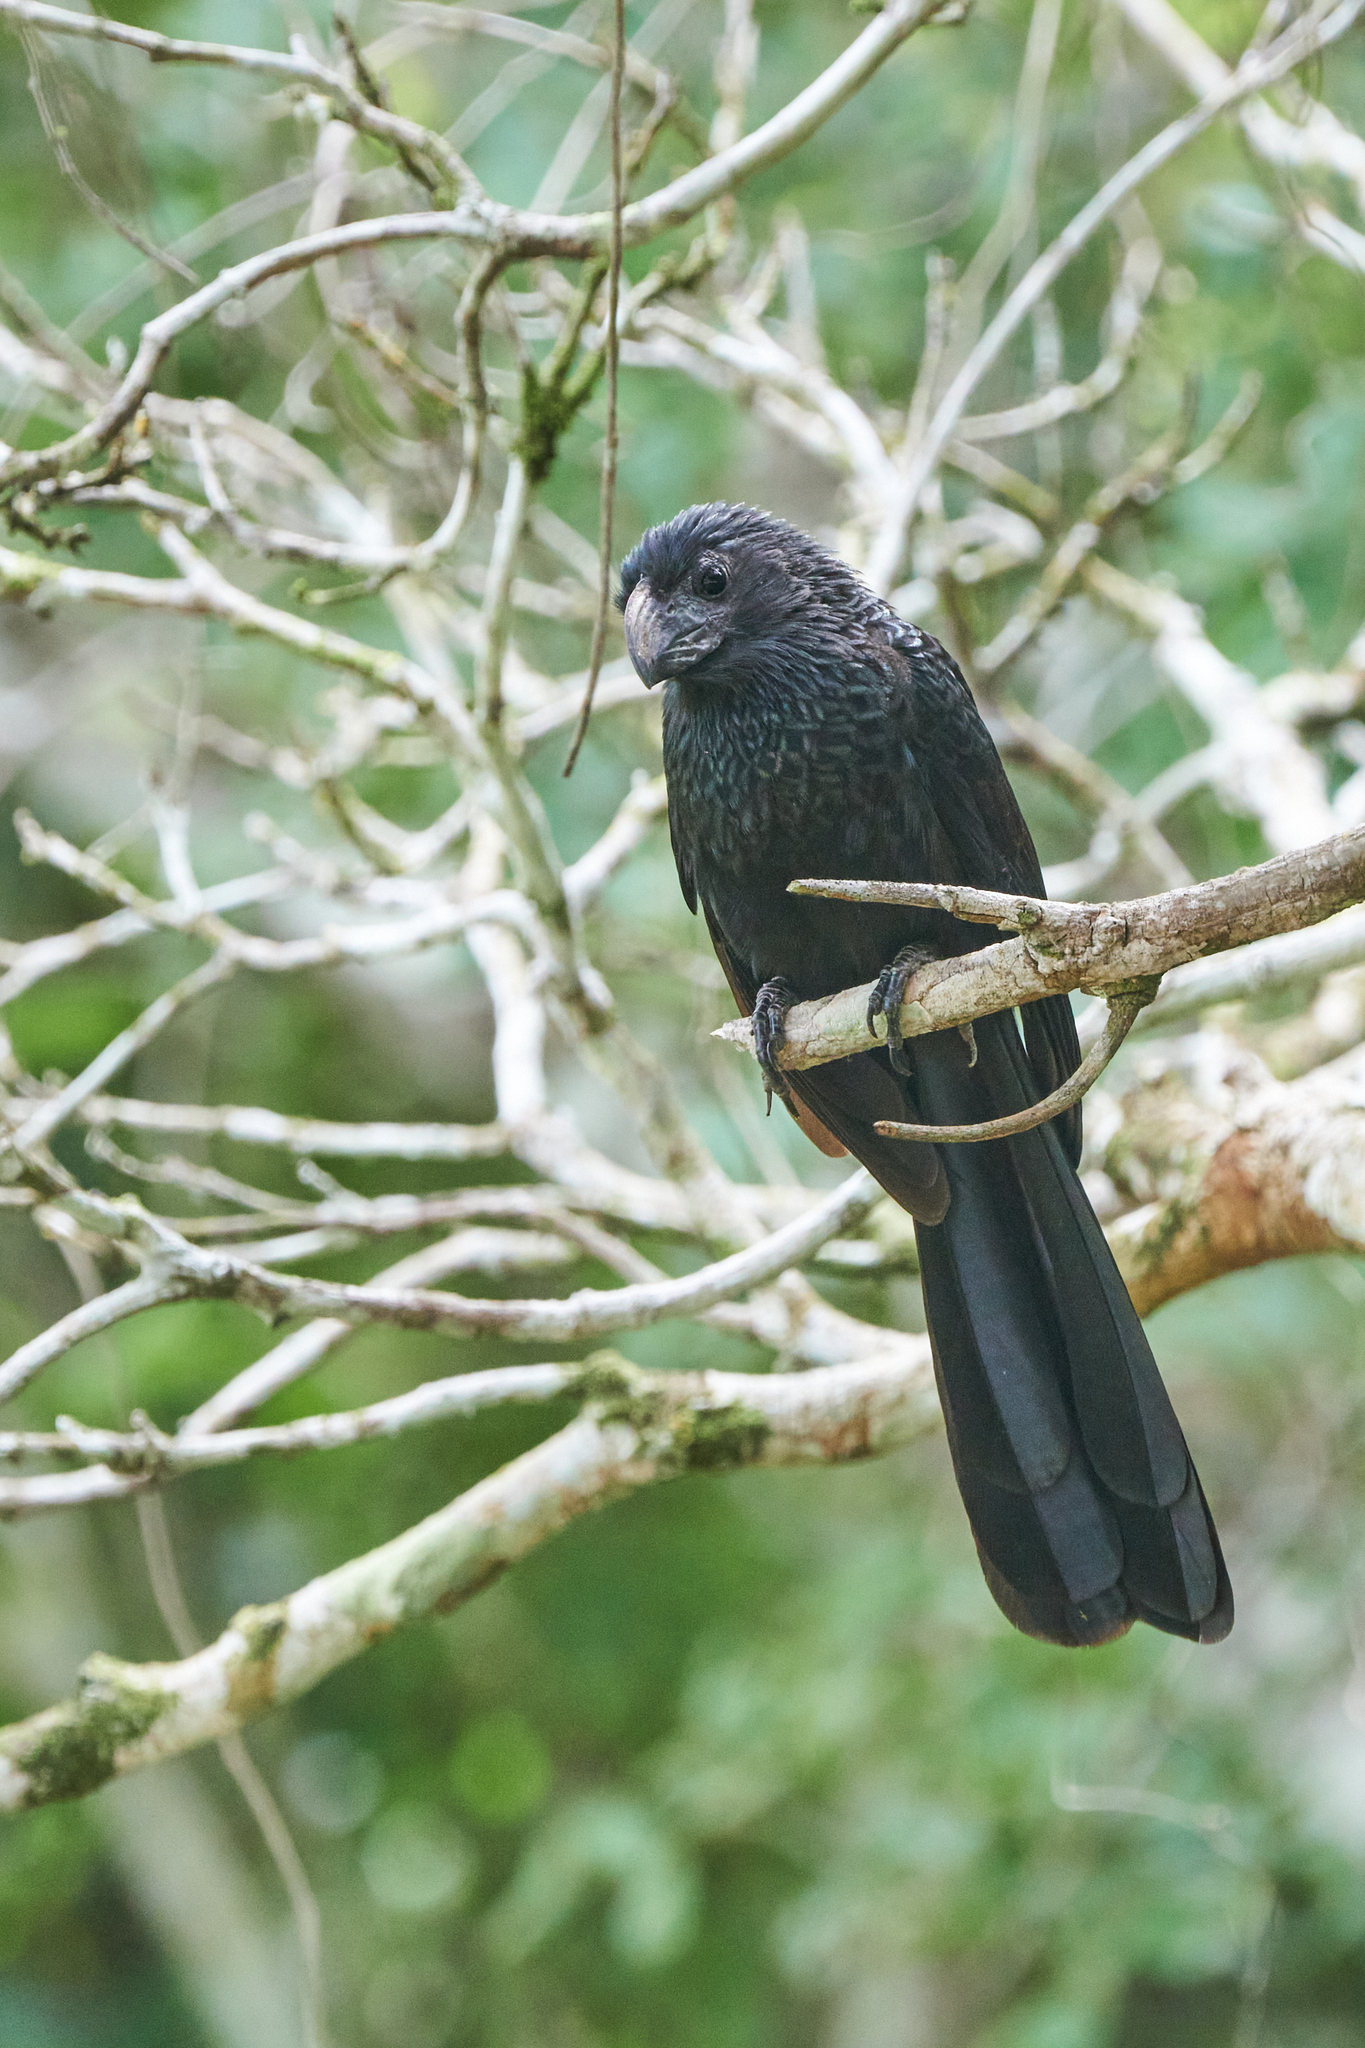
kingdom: Animalia
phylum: Chordata
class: Aves
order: Cuculiformes
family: Cuculidae
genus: Crotophaga
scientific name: Crotophaga sulcirostris
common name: Groove-billed ani
